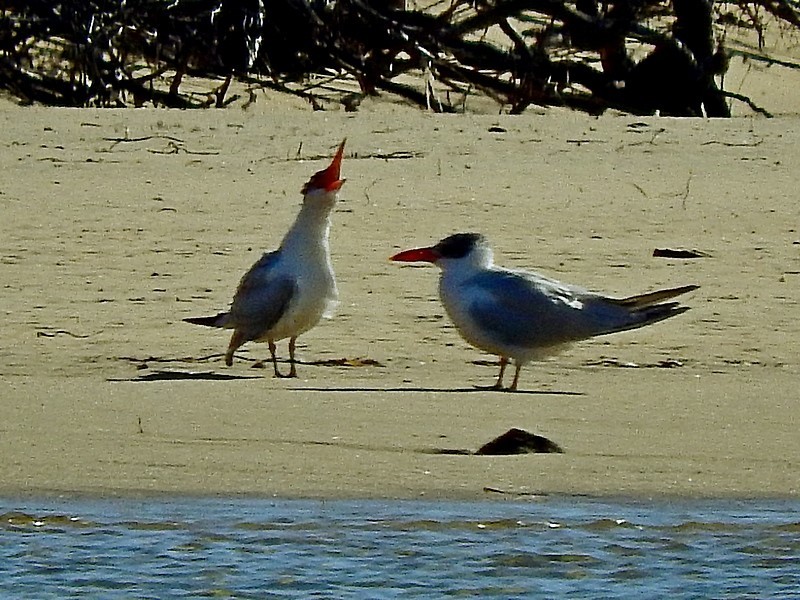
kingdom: Animalia
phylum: Chordata
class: Aves
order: Charadriiformes
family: Laridae
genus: Hydroprogne
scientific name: Hydroprogne caspia
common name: Caspian tern
